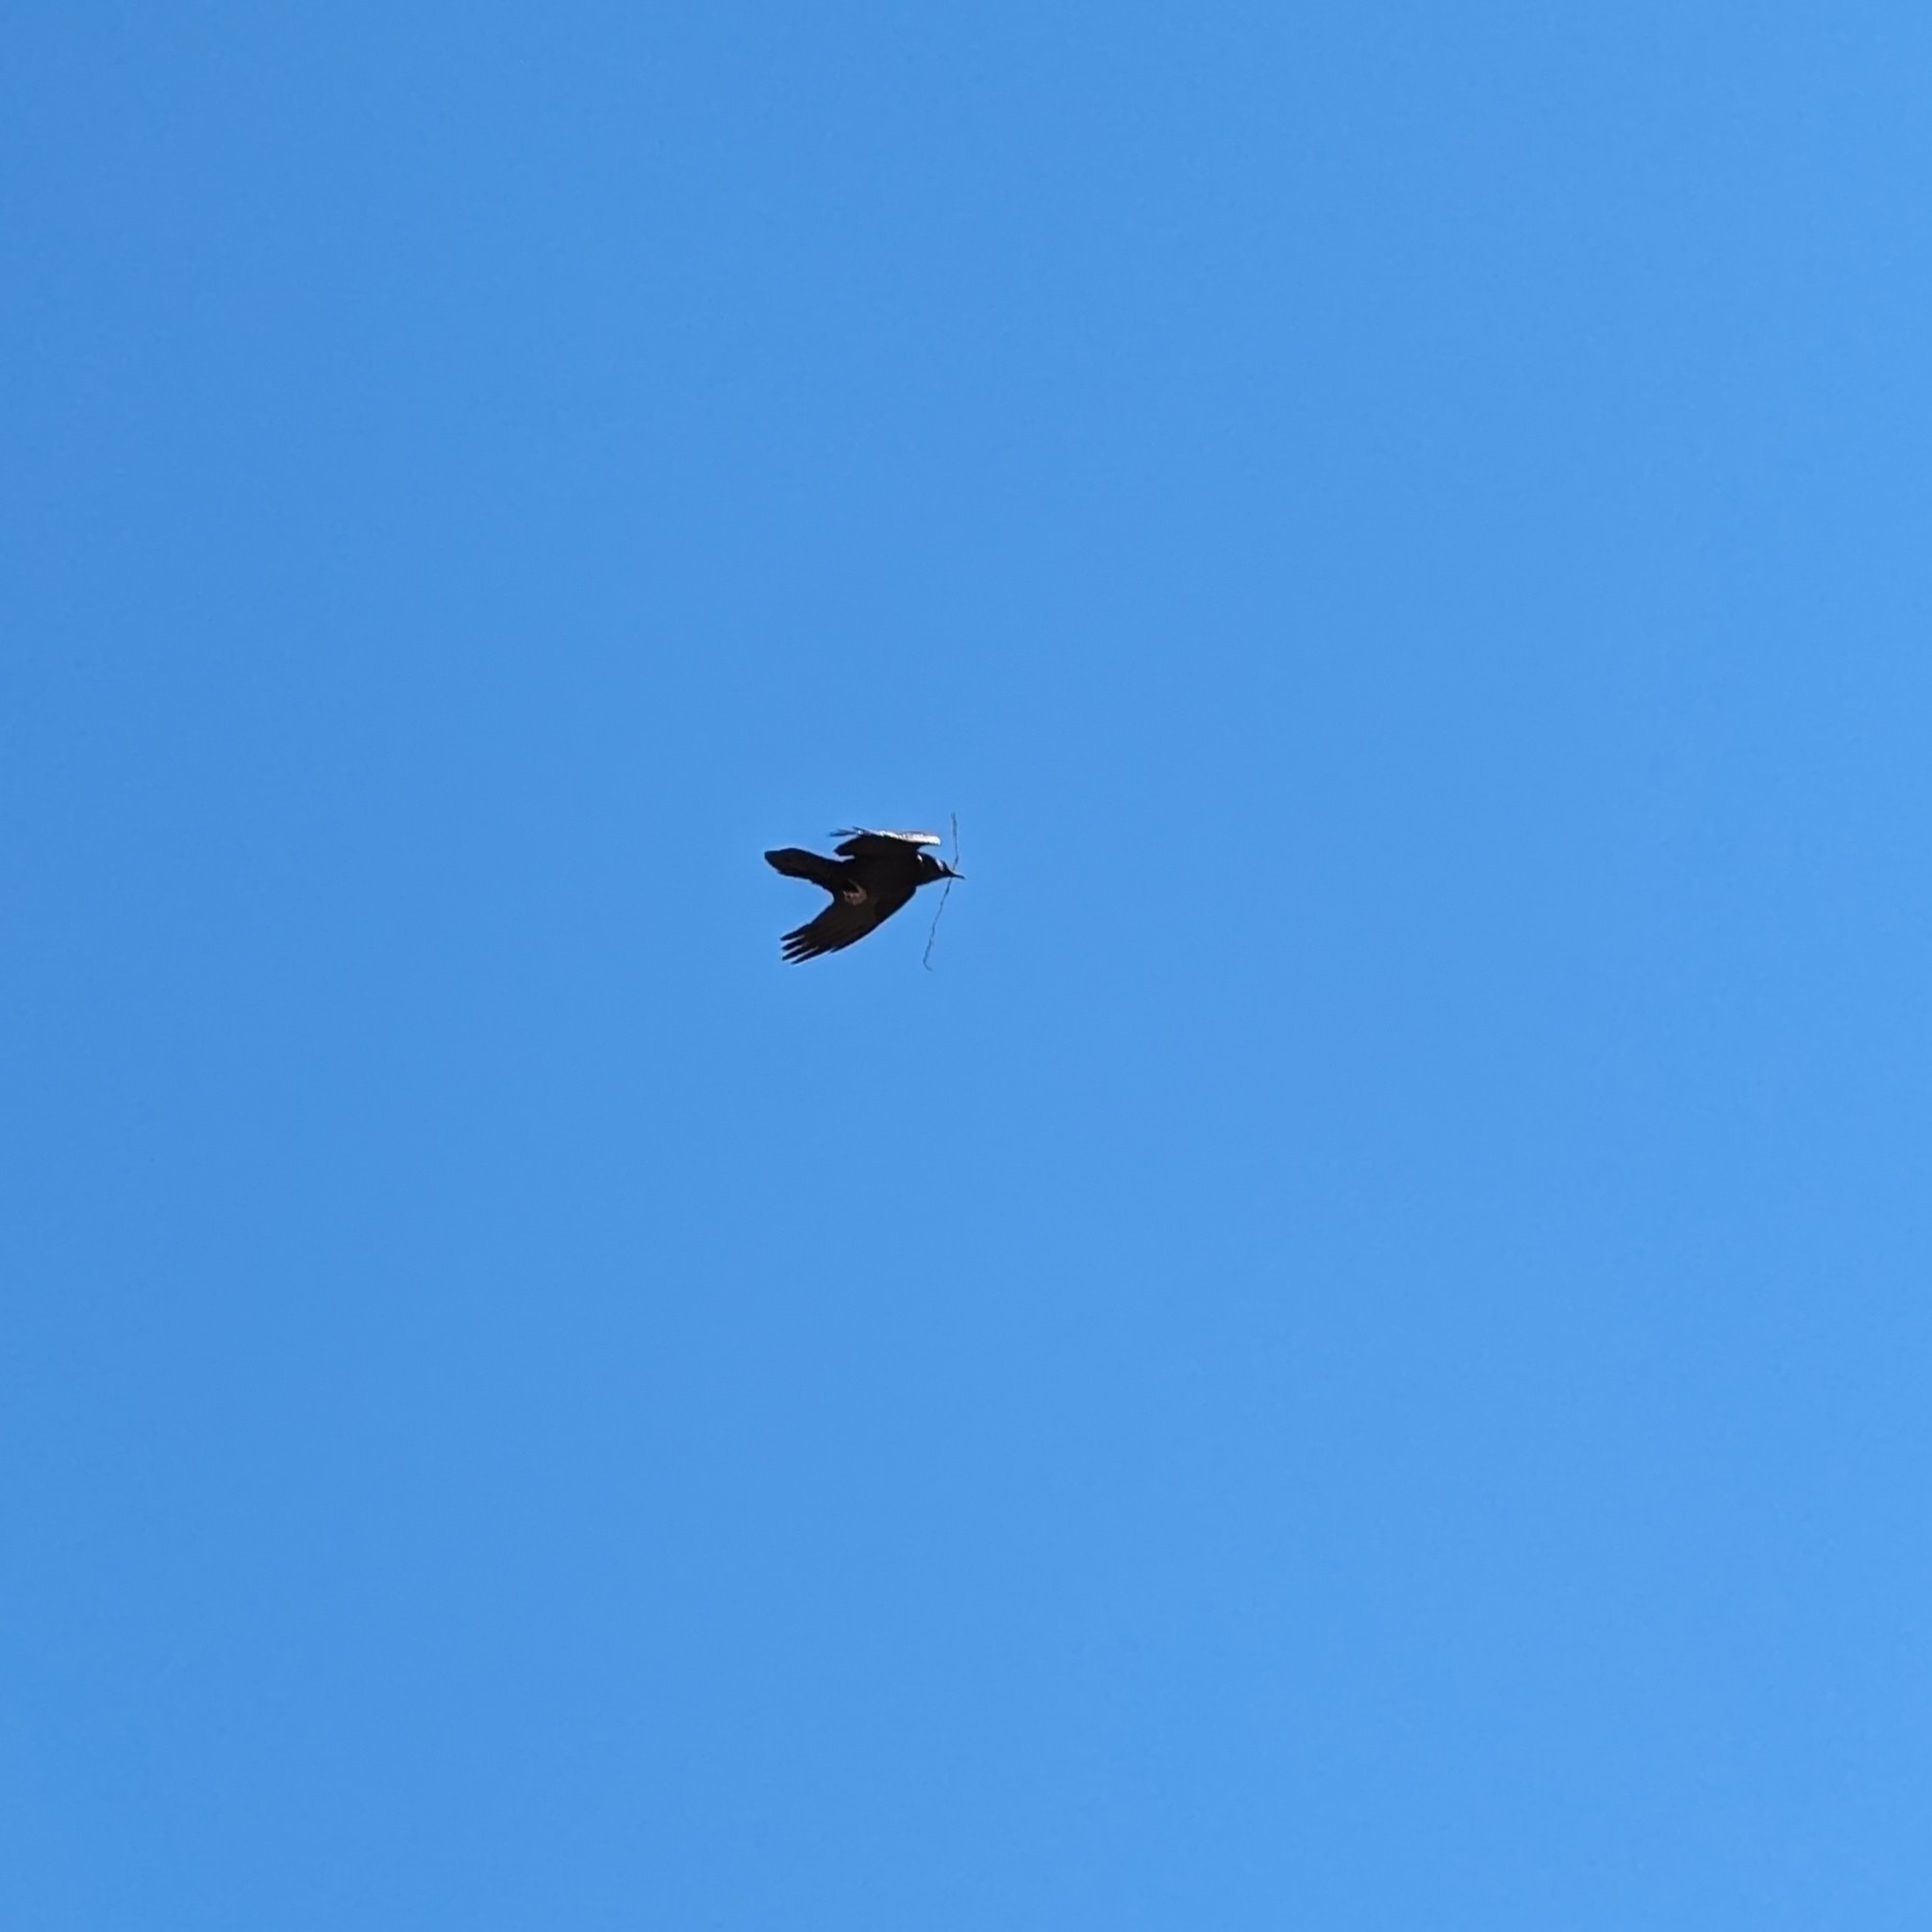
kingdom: Animalia
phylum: Chordata
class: Aves
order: Passeriformes
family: Corvidae
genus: Corvus
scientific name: Corvus corax
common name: Common raven
